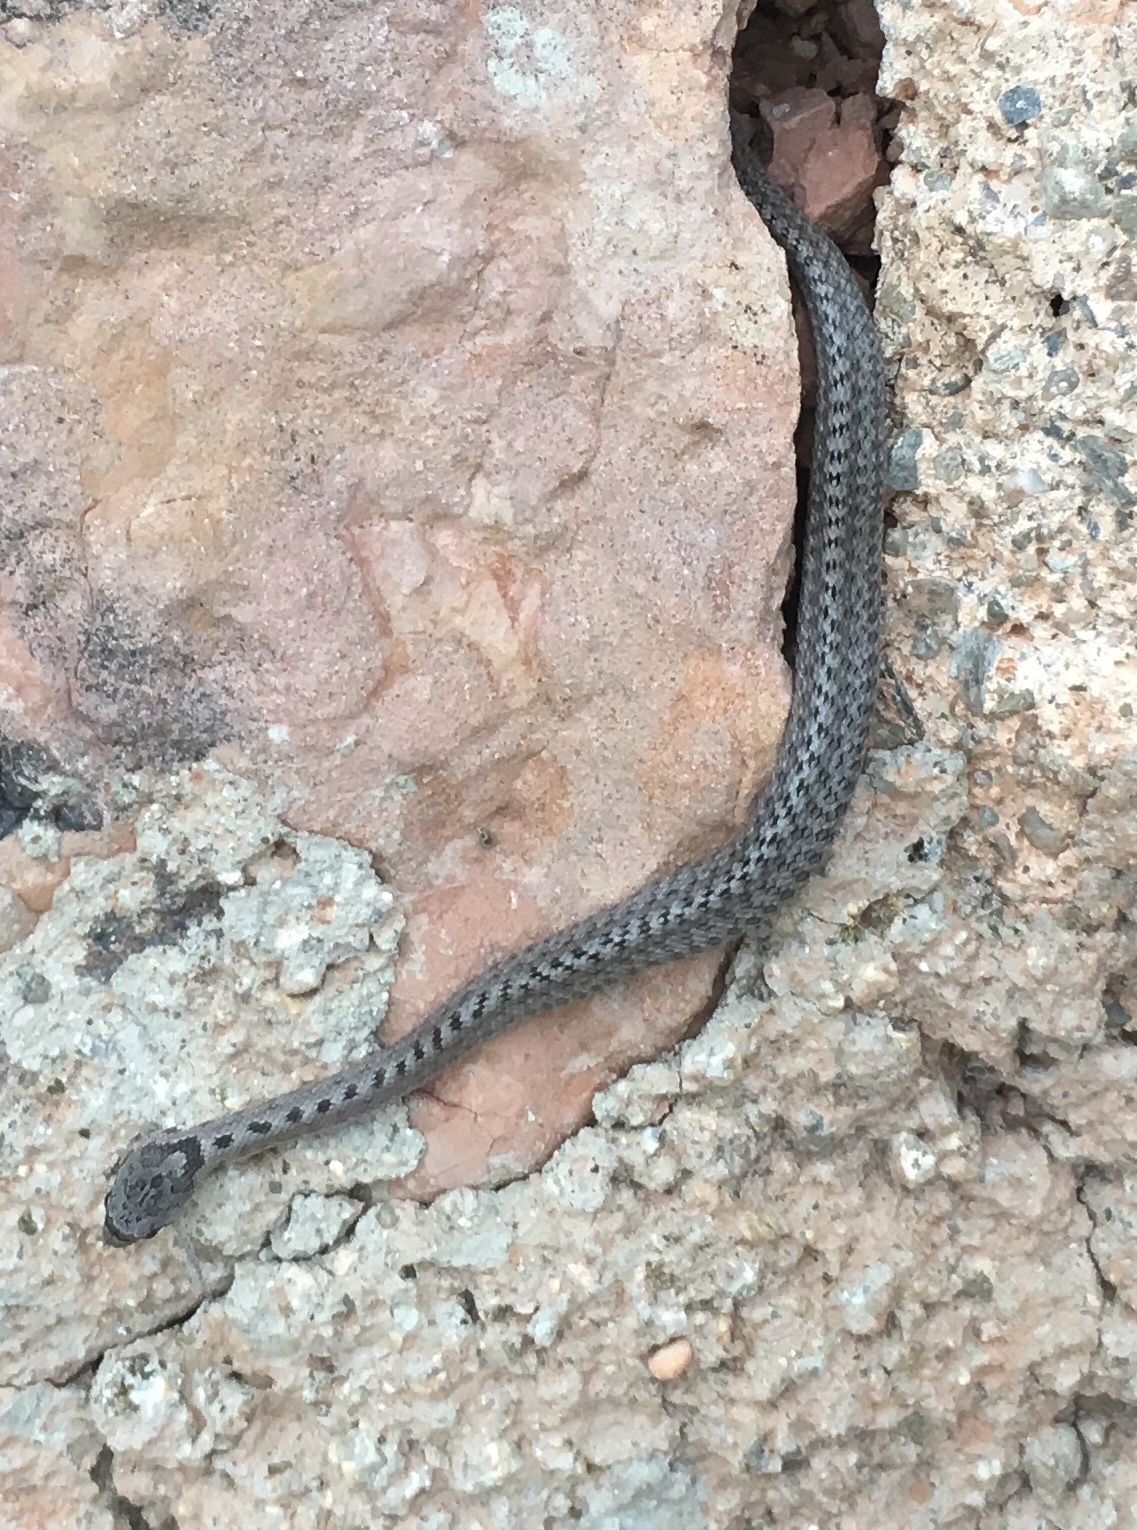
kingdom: Animalia
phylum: Chordata
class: Squamata
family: Colubridae
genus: Coronella
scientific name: Coronella girondica
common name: Southern smooth snake
